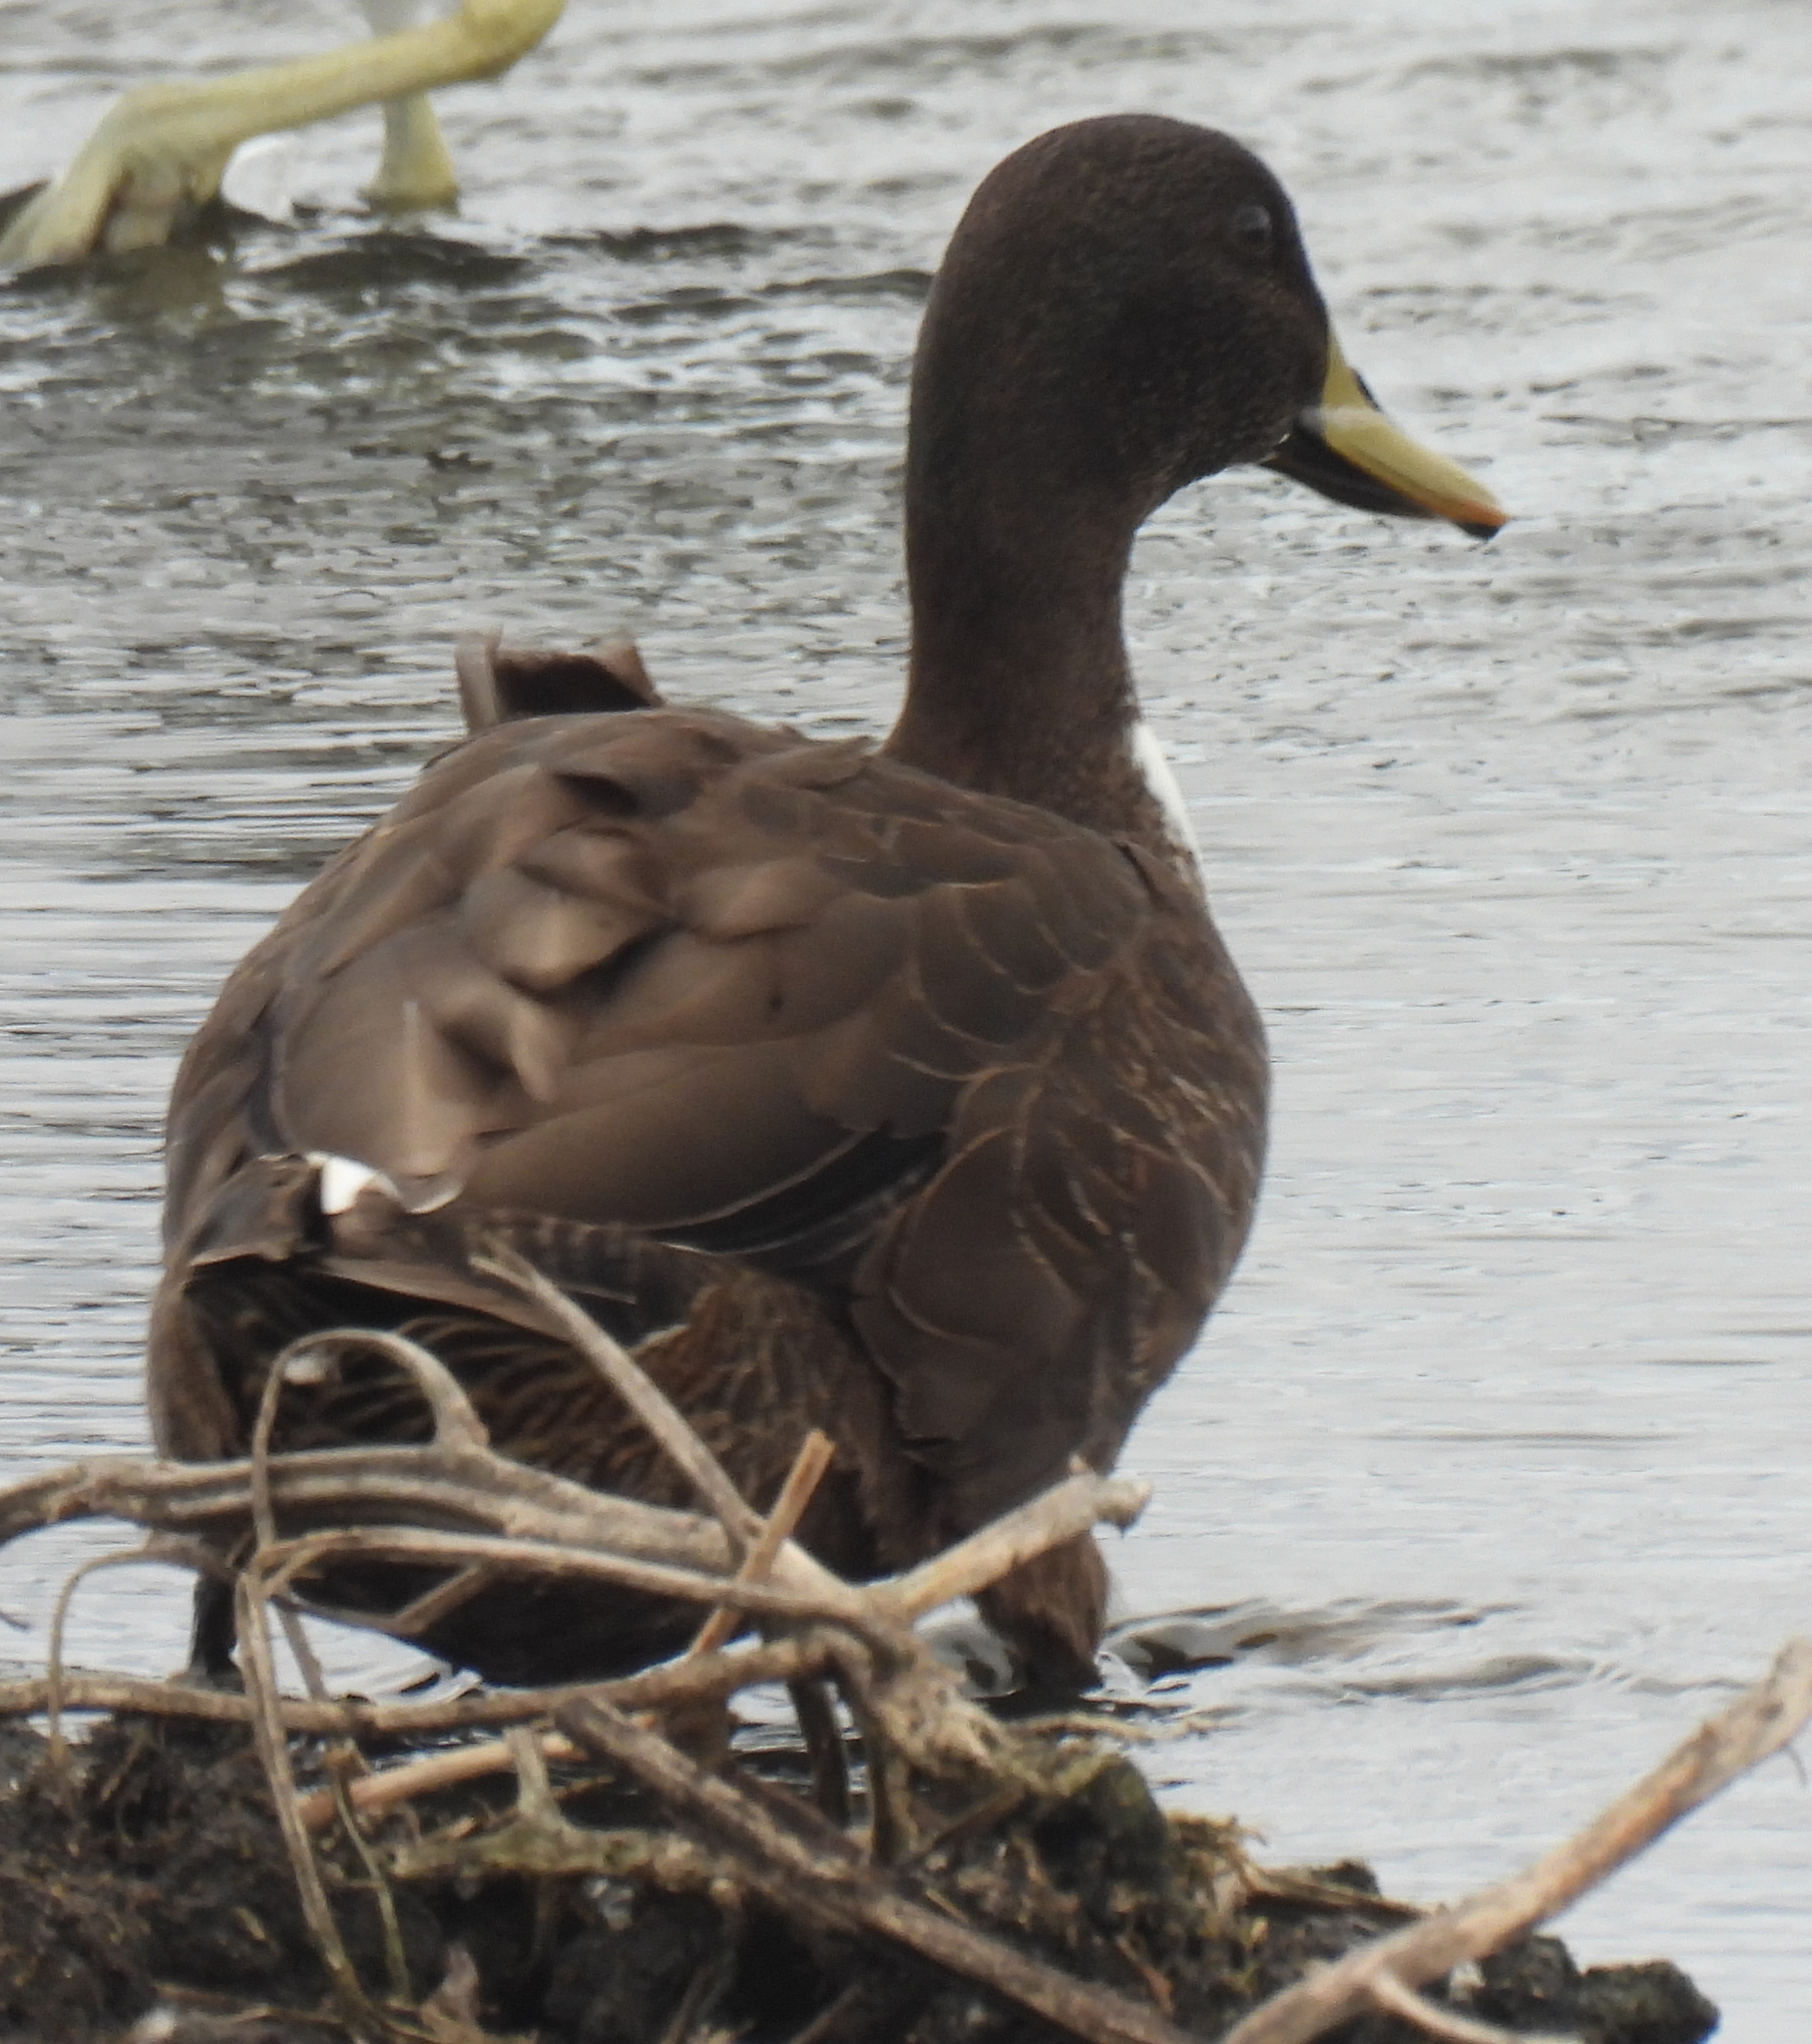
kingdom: Animalia
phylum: Chordata
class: Aves
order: Anseriformes
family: Anatidae
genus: Anas
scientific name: Anas
